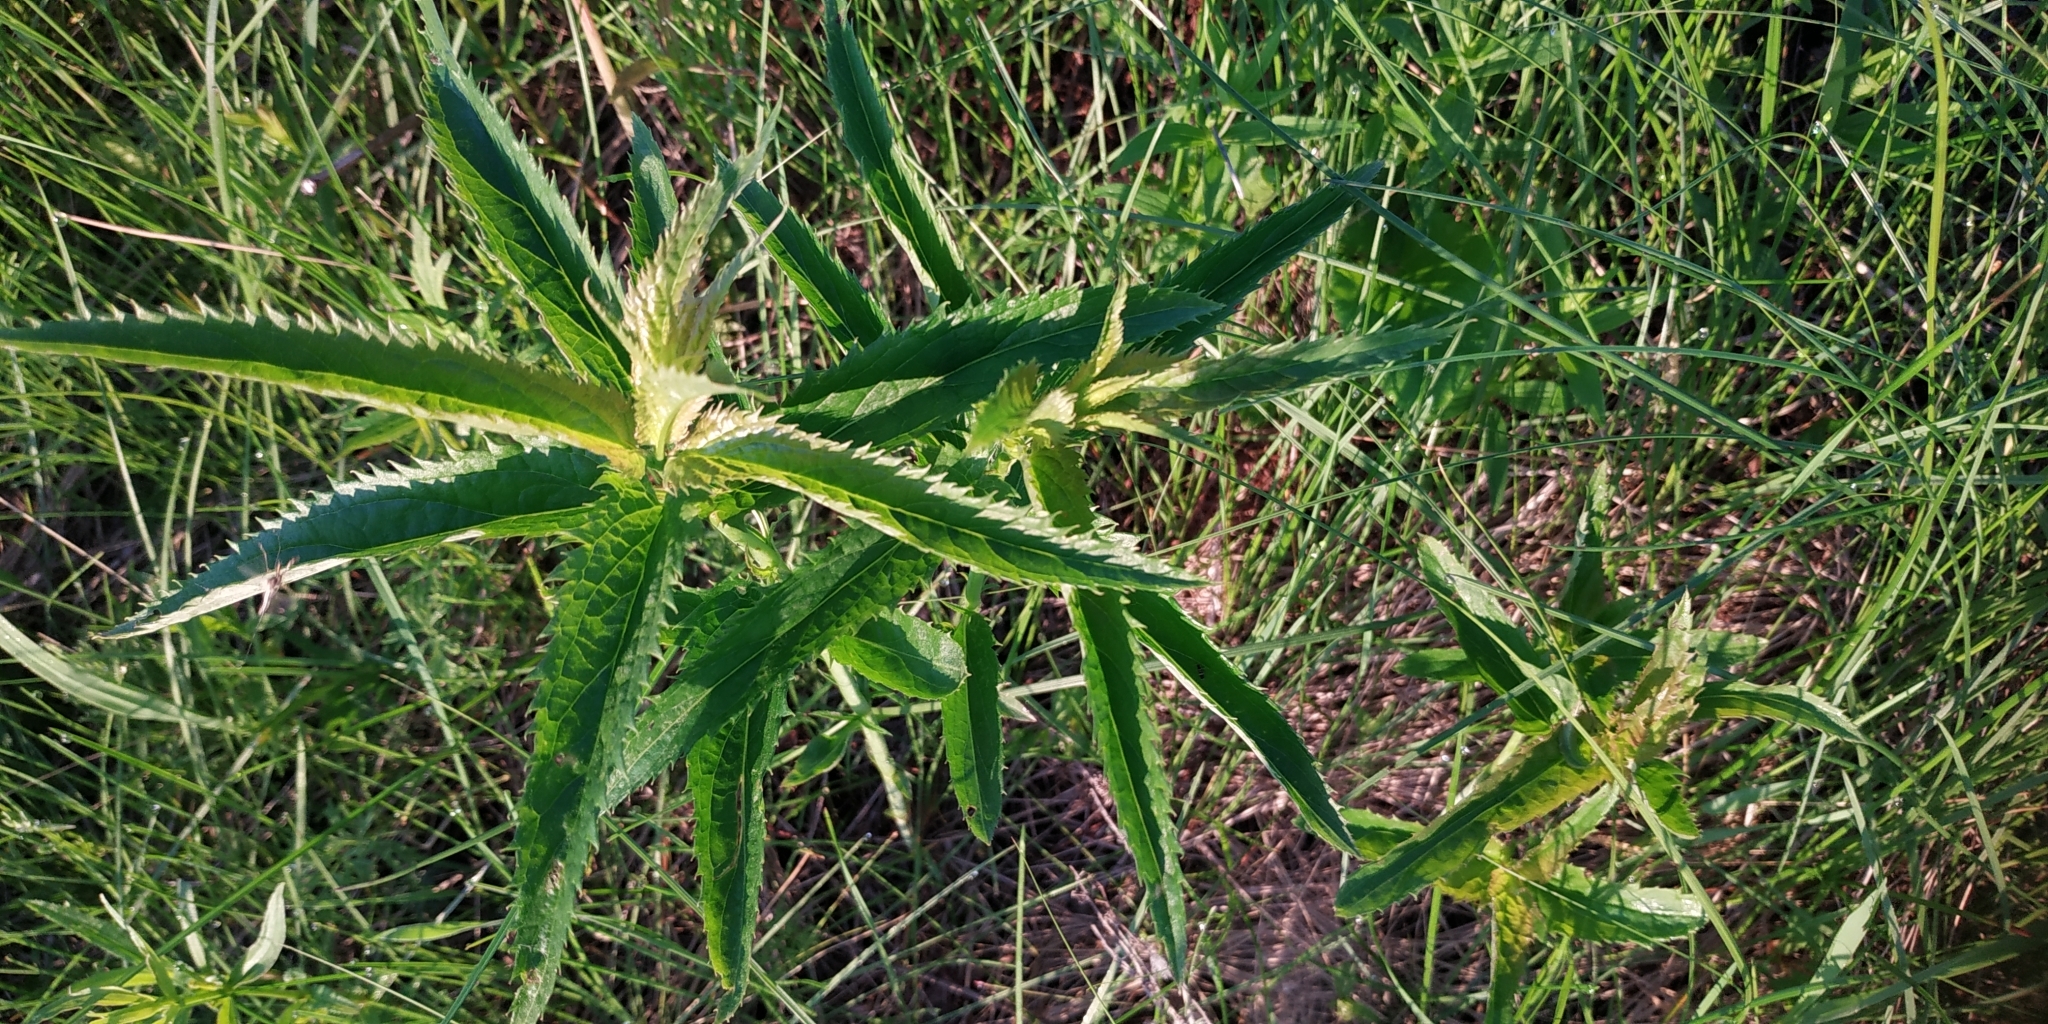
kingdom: Plantae
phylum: Tracheophyta
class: Magnoliopsida
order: Lamiales
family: Plantaginaceae
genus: Veronica
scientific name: Veronica longifolia
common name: Garden speedwell
